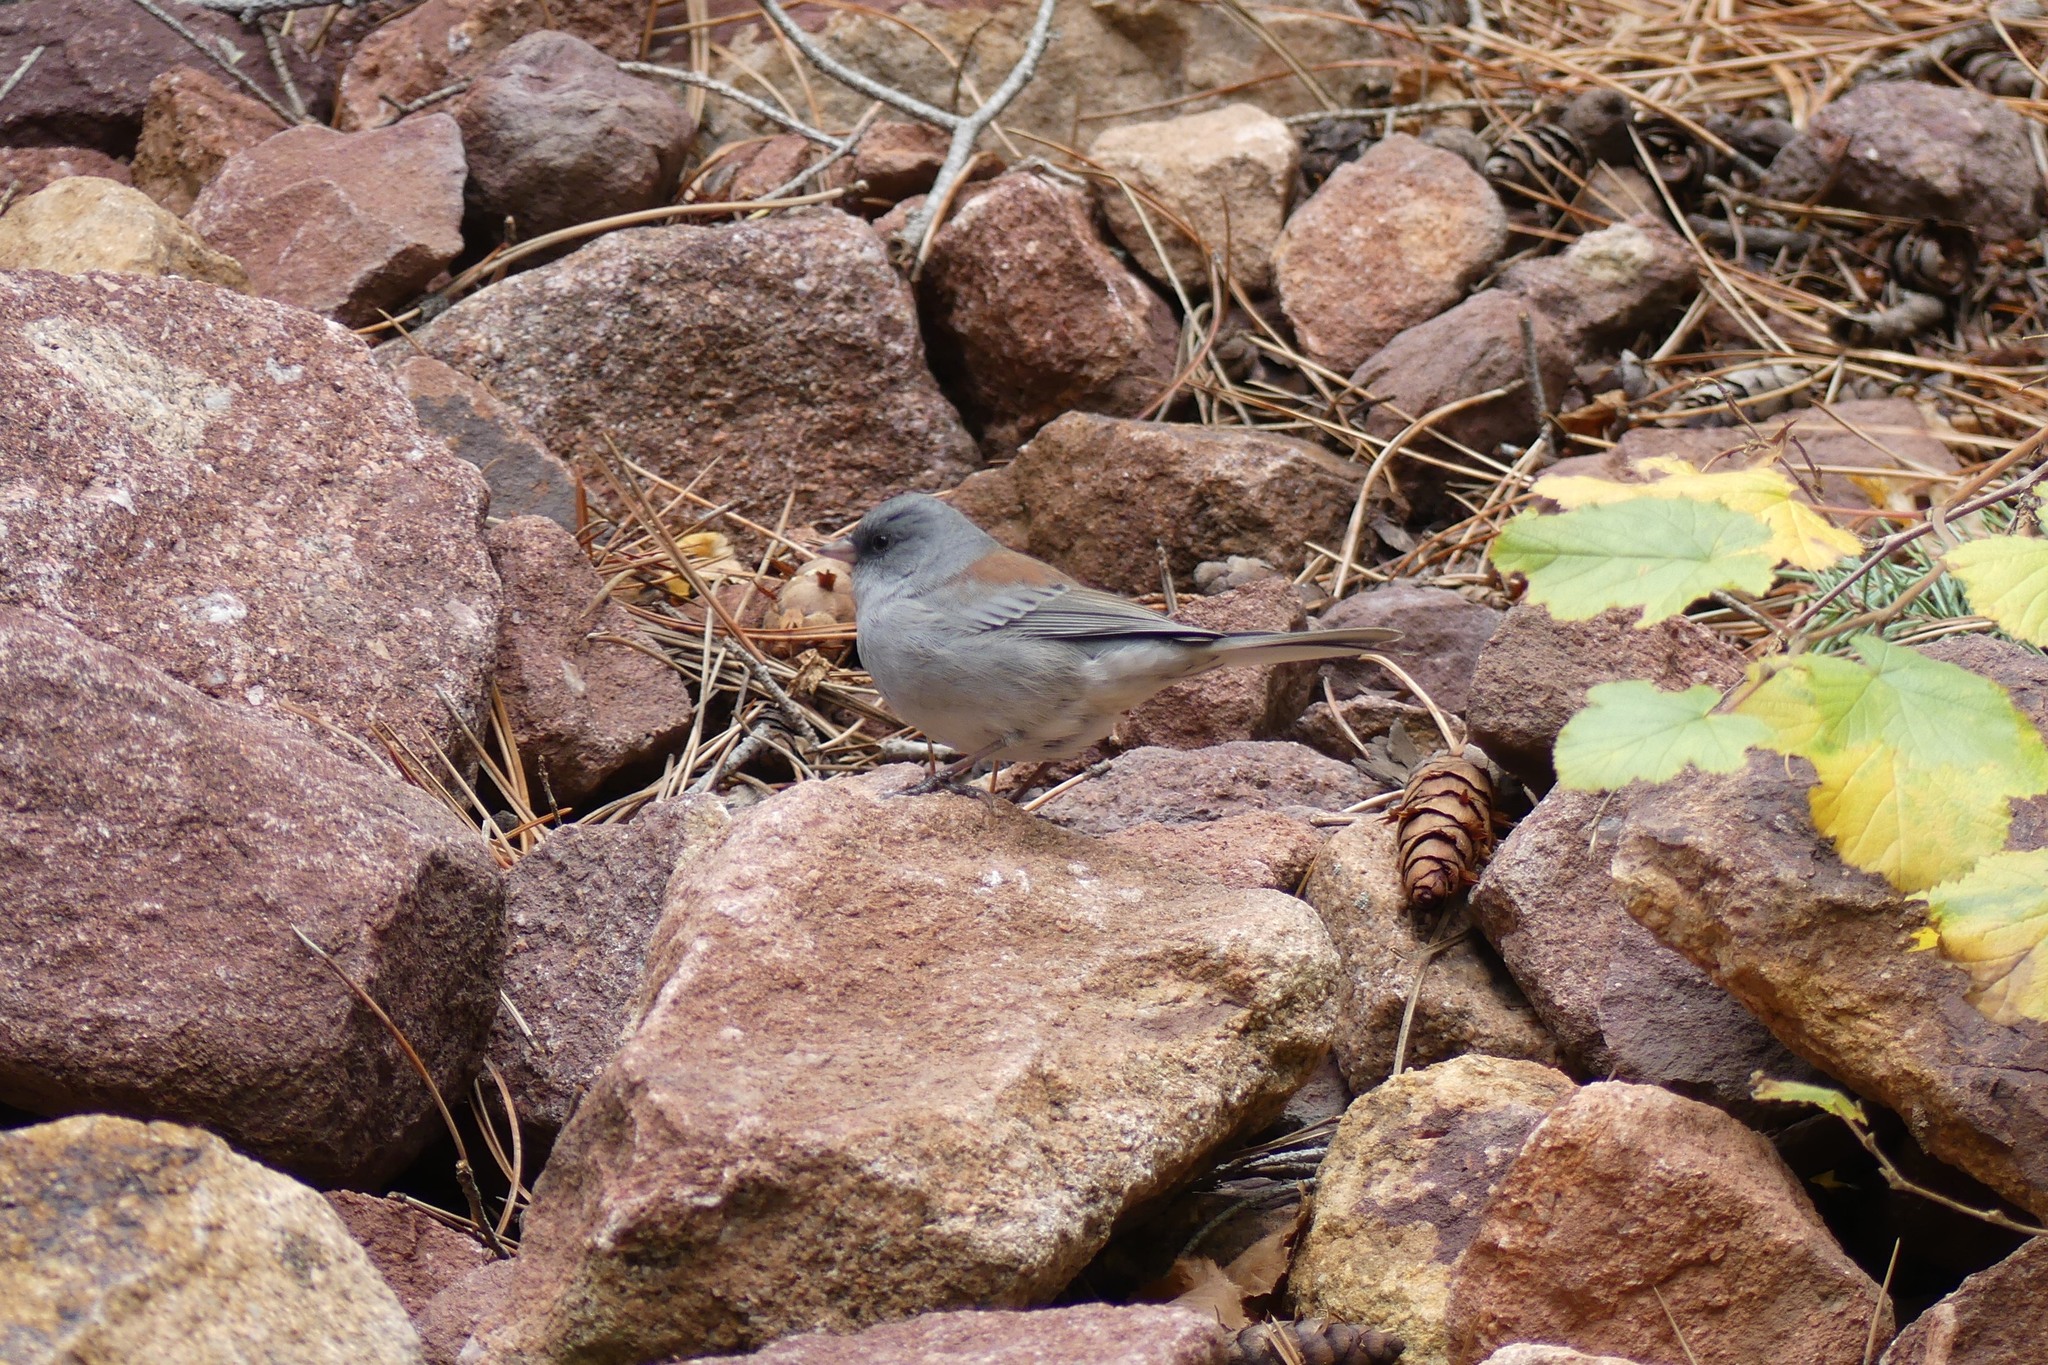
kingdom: Animalia
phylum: Chordata
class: Aves
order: Passeriformes
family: Passerellidae
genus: Junco
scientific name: Junco hyemalis
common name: Dark-eyed junco
